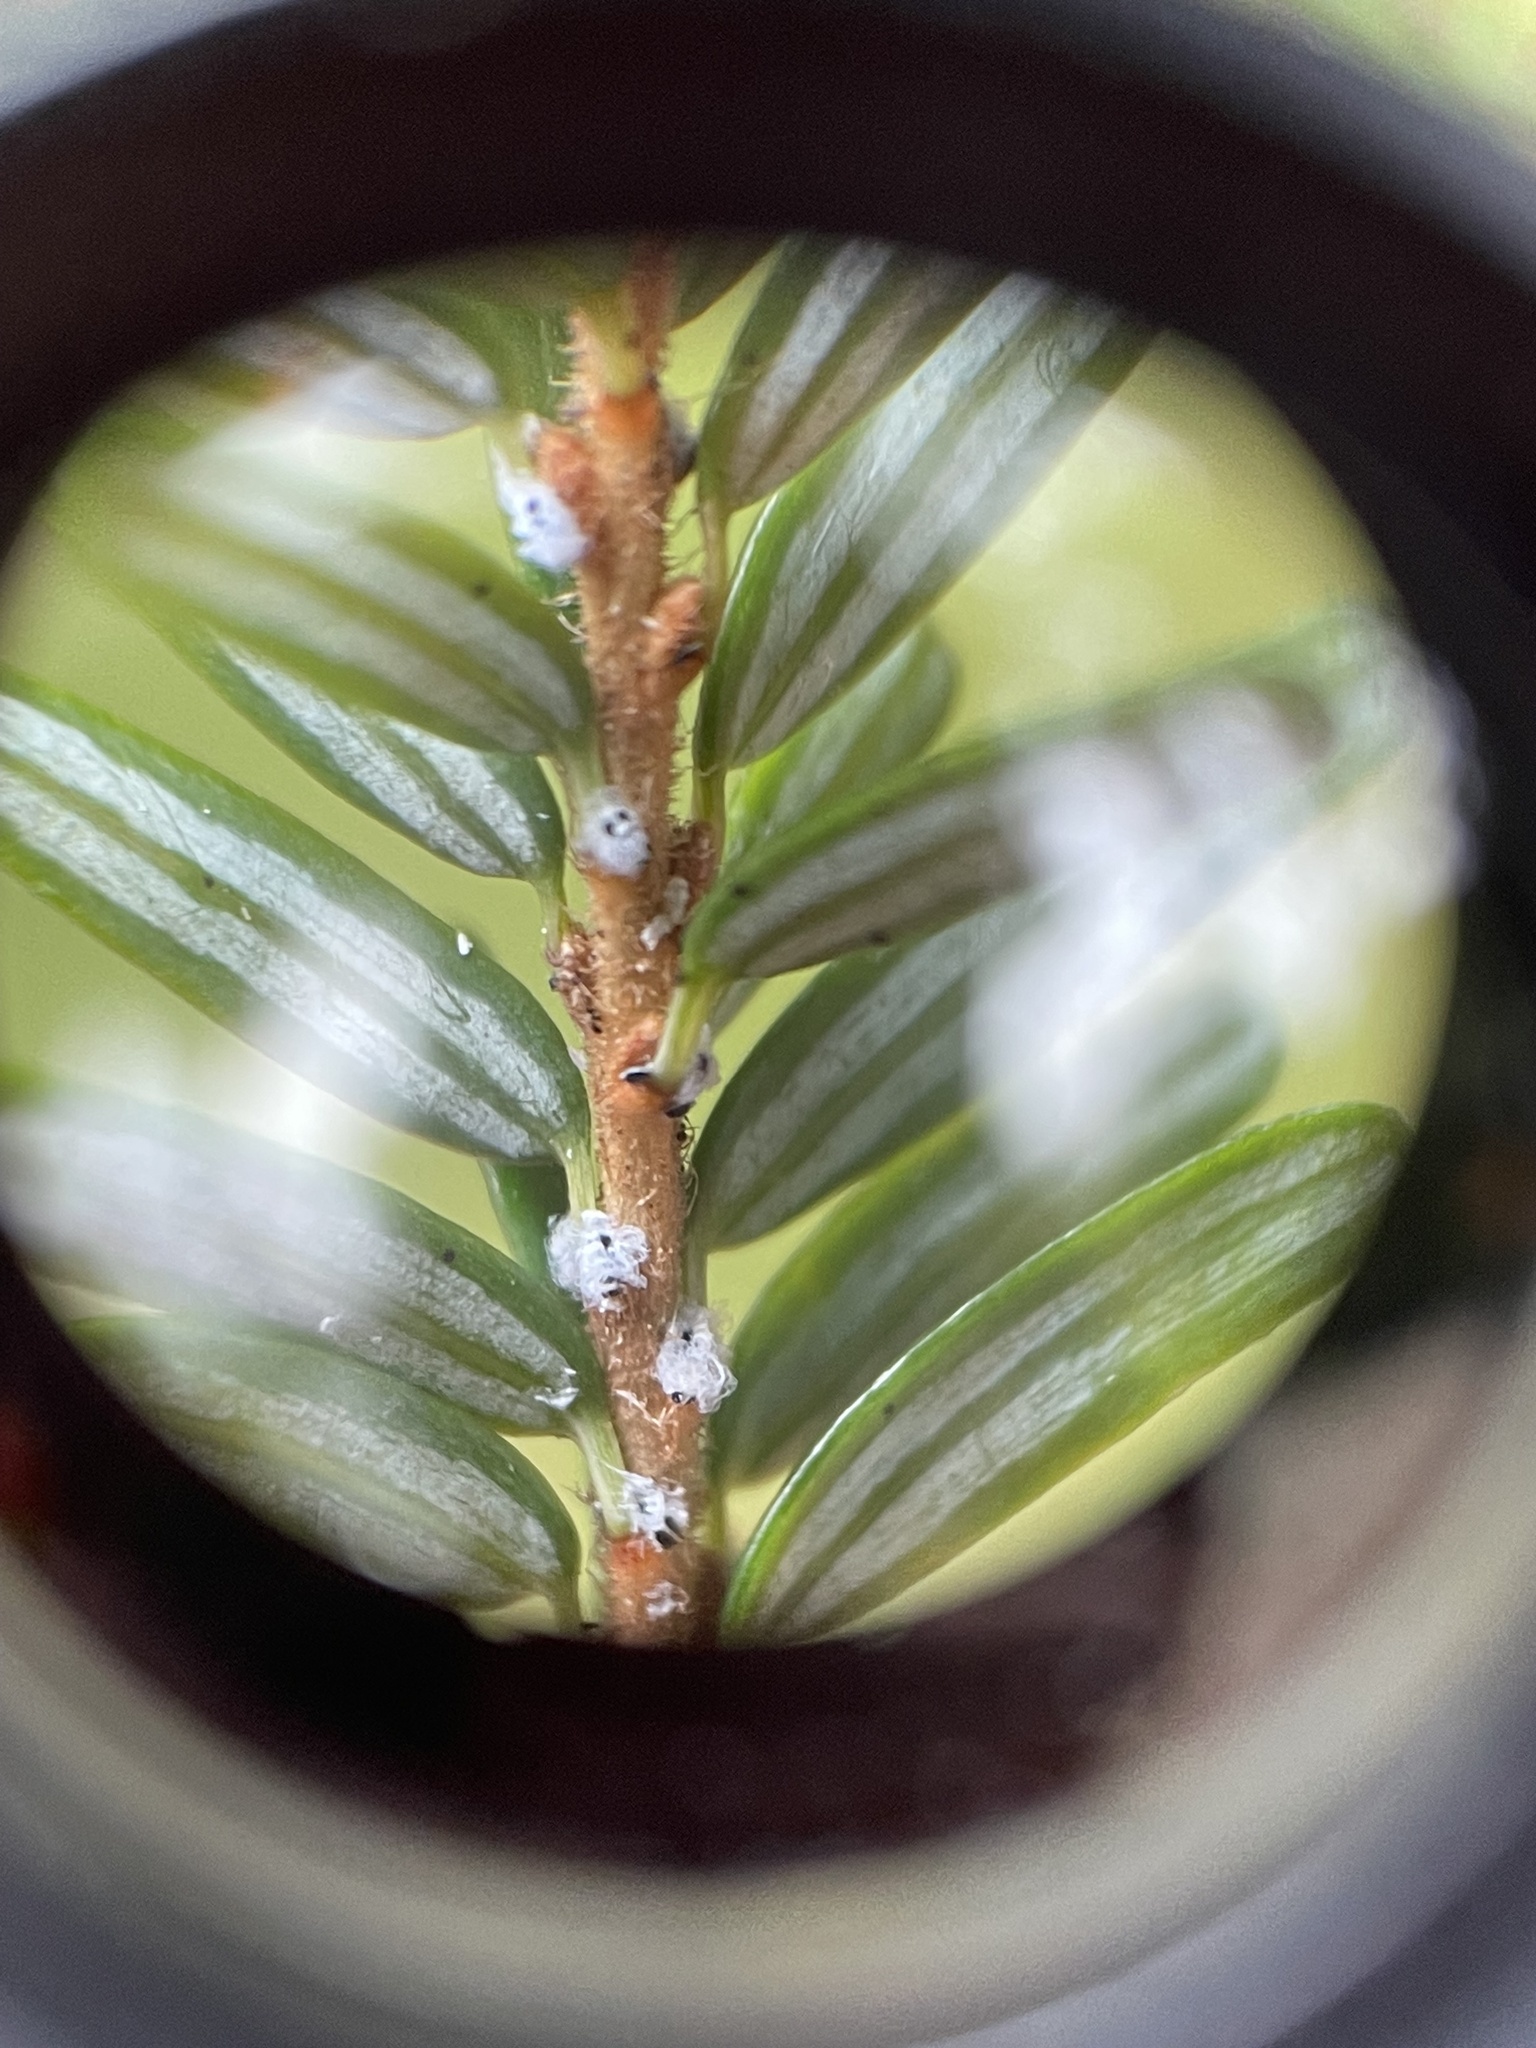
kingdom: Animalia
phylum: Arthropoda
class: Insecta
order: Hemiptera
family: Adelgidae
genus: Adelges
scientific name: Adelges tsugae
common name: Hemlock woolly adelgid
